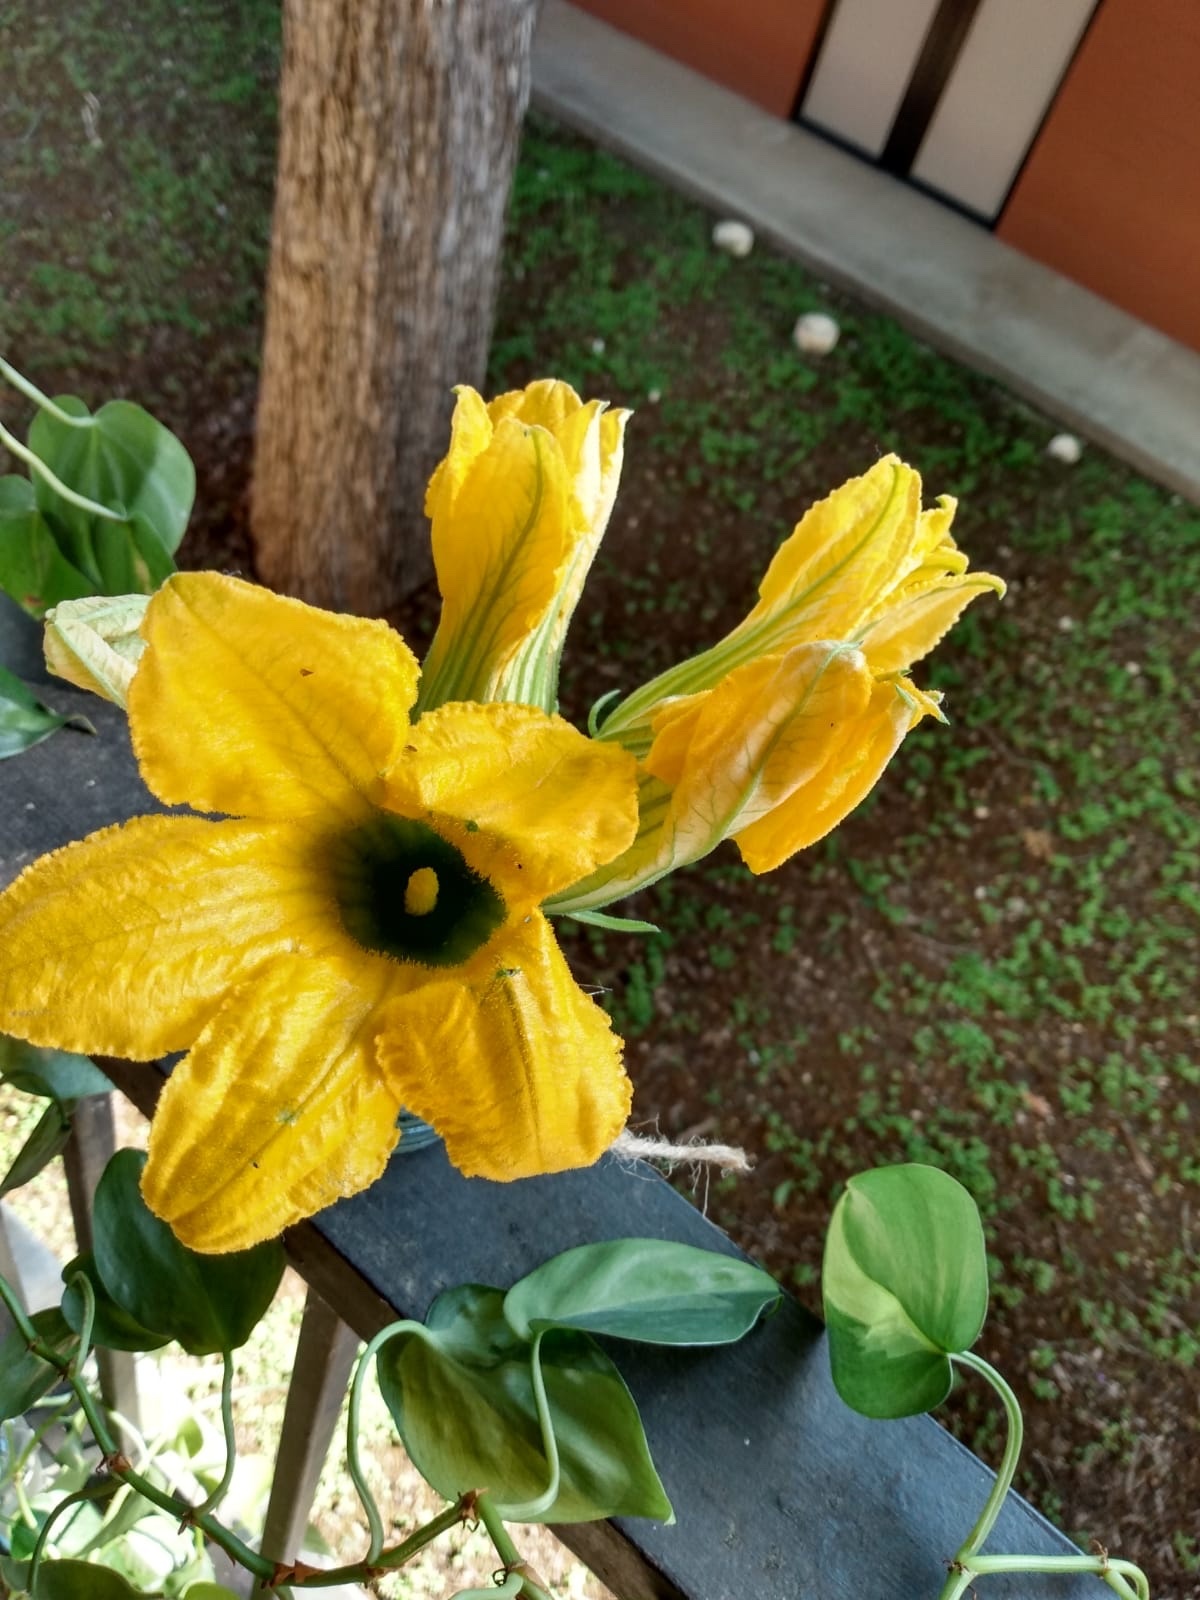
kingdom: Plantae
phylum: Tracheophyta
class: Magnoliopsida
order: Cucurbitales
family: Cucurbitaceae
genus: Cucurbita
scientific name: Cucurbita foetidissima
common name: Buffalo gourd
